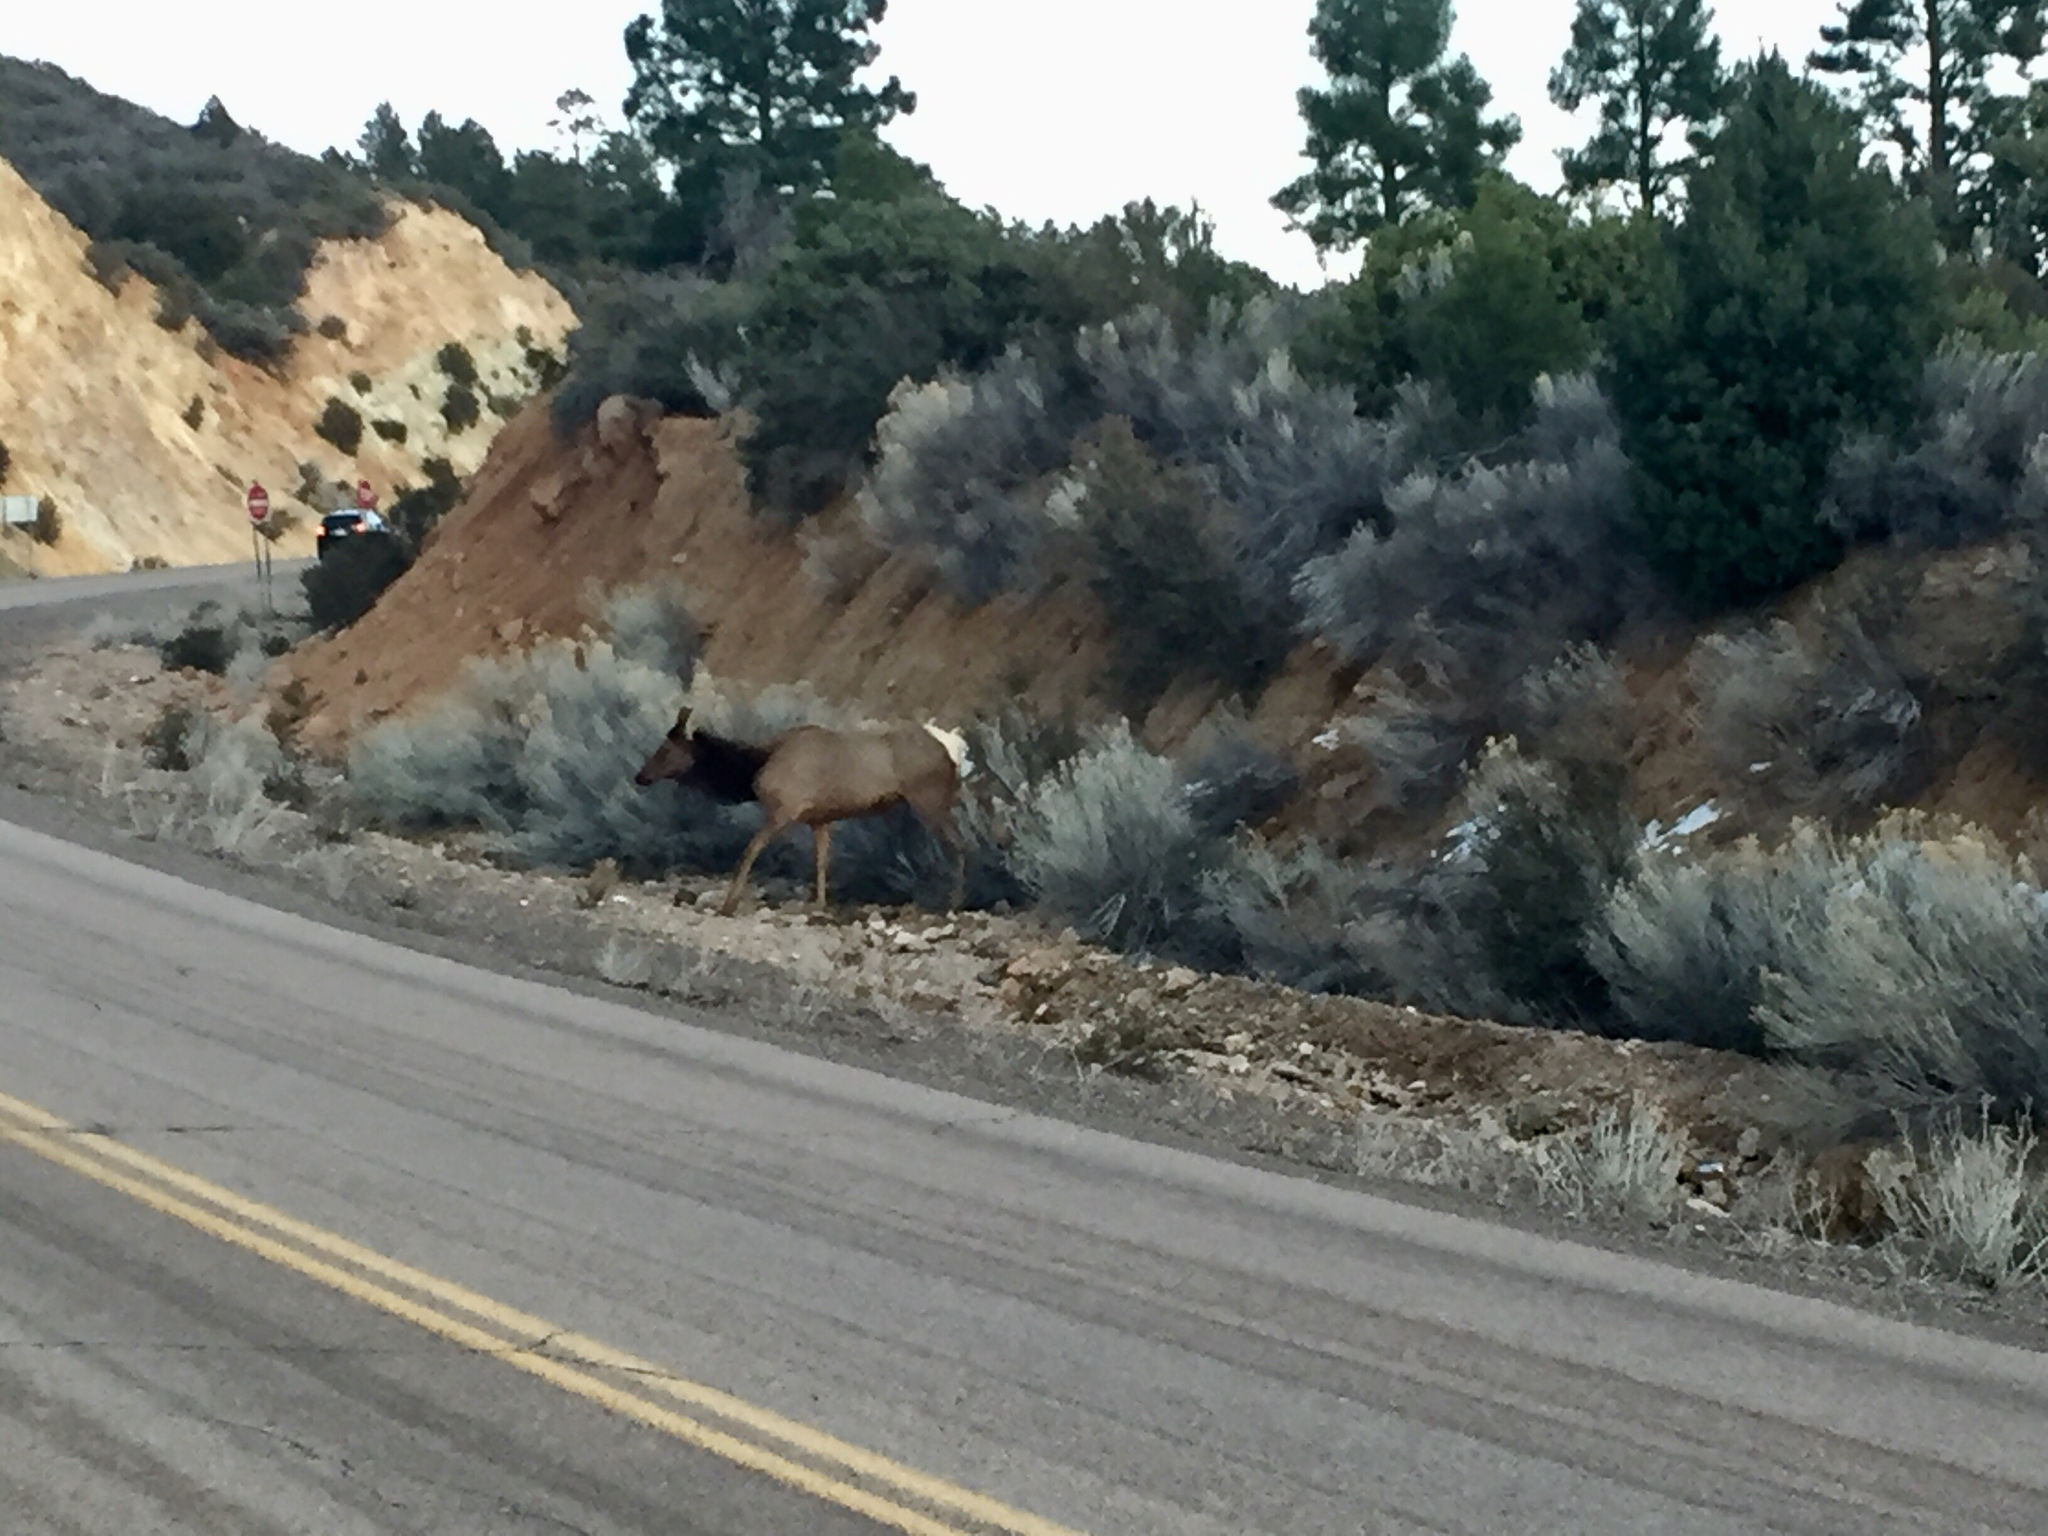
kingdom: Animalia
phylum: Chordata
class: Mammalia
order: Artiodactyla
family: Cervidae
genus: Cervus
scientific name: Cervus elaphus
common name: Red deer
